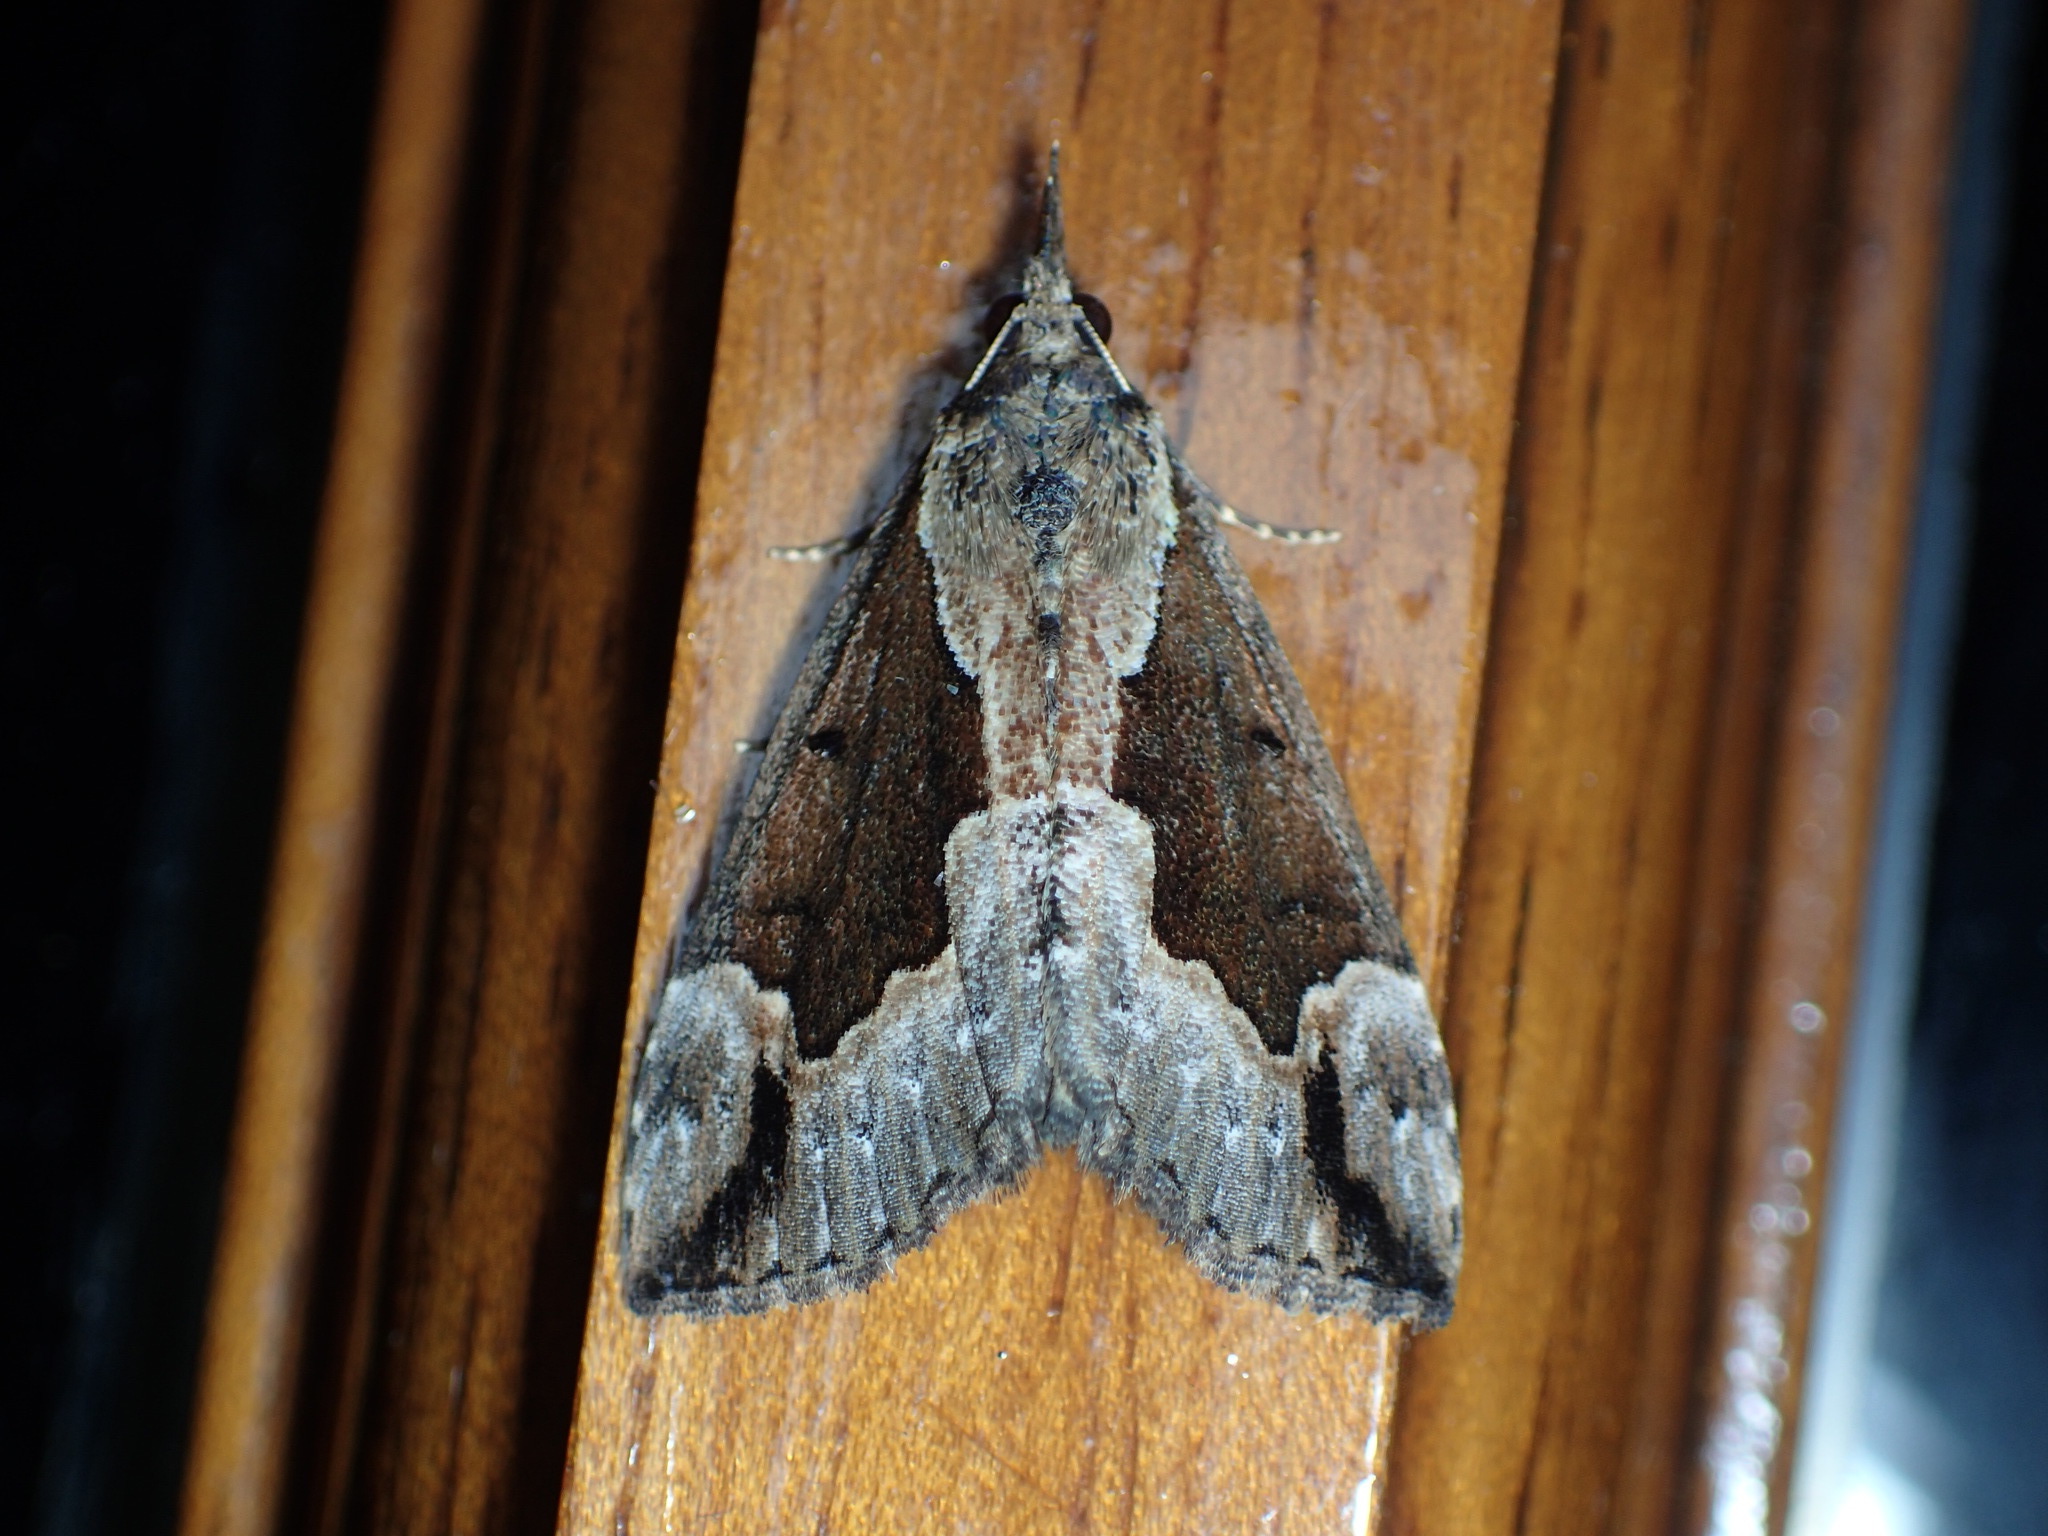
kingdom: Animalia
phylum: Arthropoda
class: Insecta
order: Lepidoptera
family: Erebidae
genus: Hypena
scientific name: Hypena baltimoralis
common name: Baltimore snout
